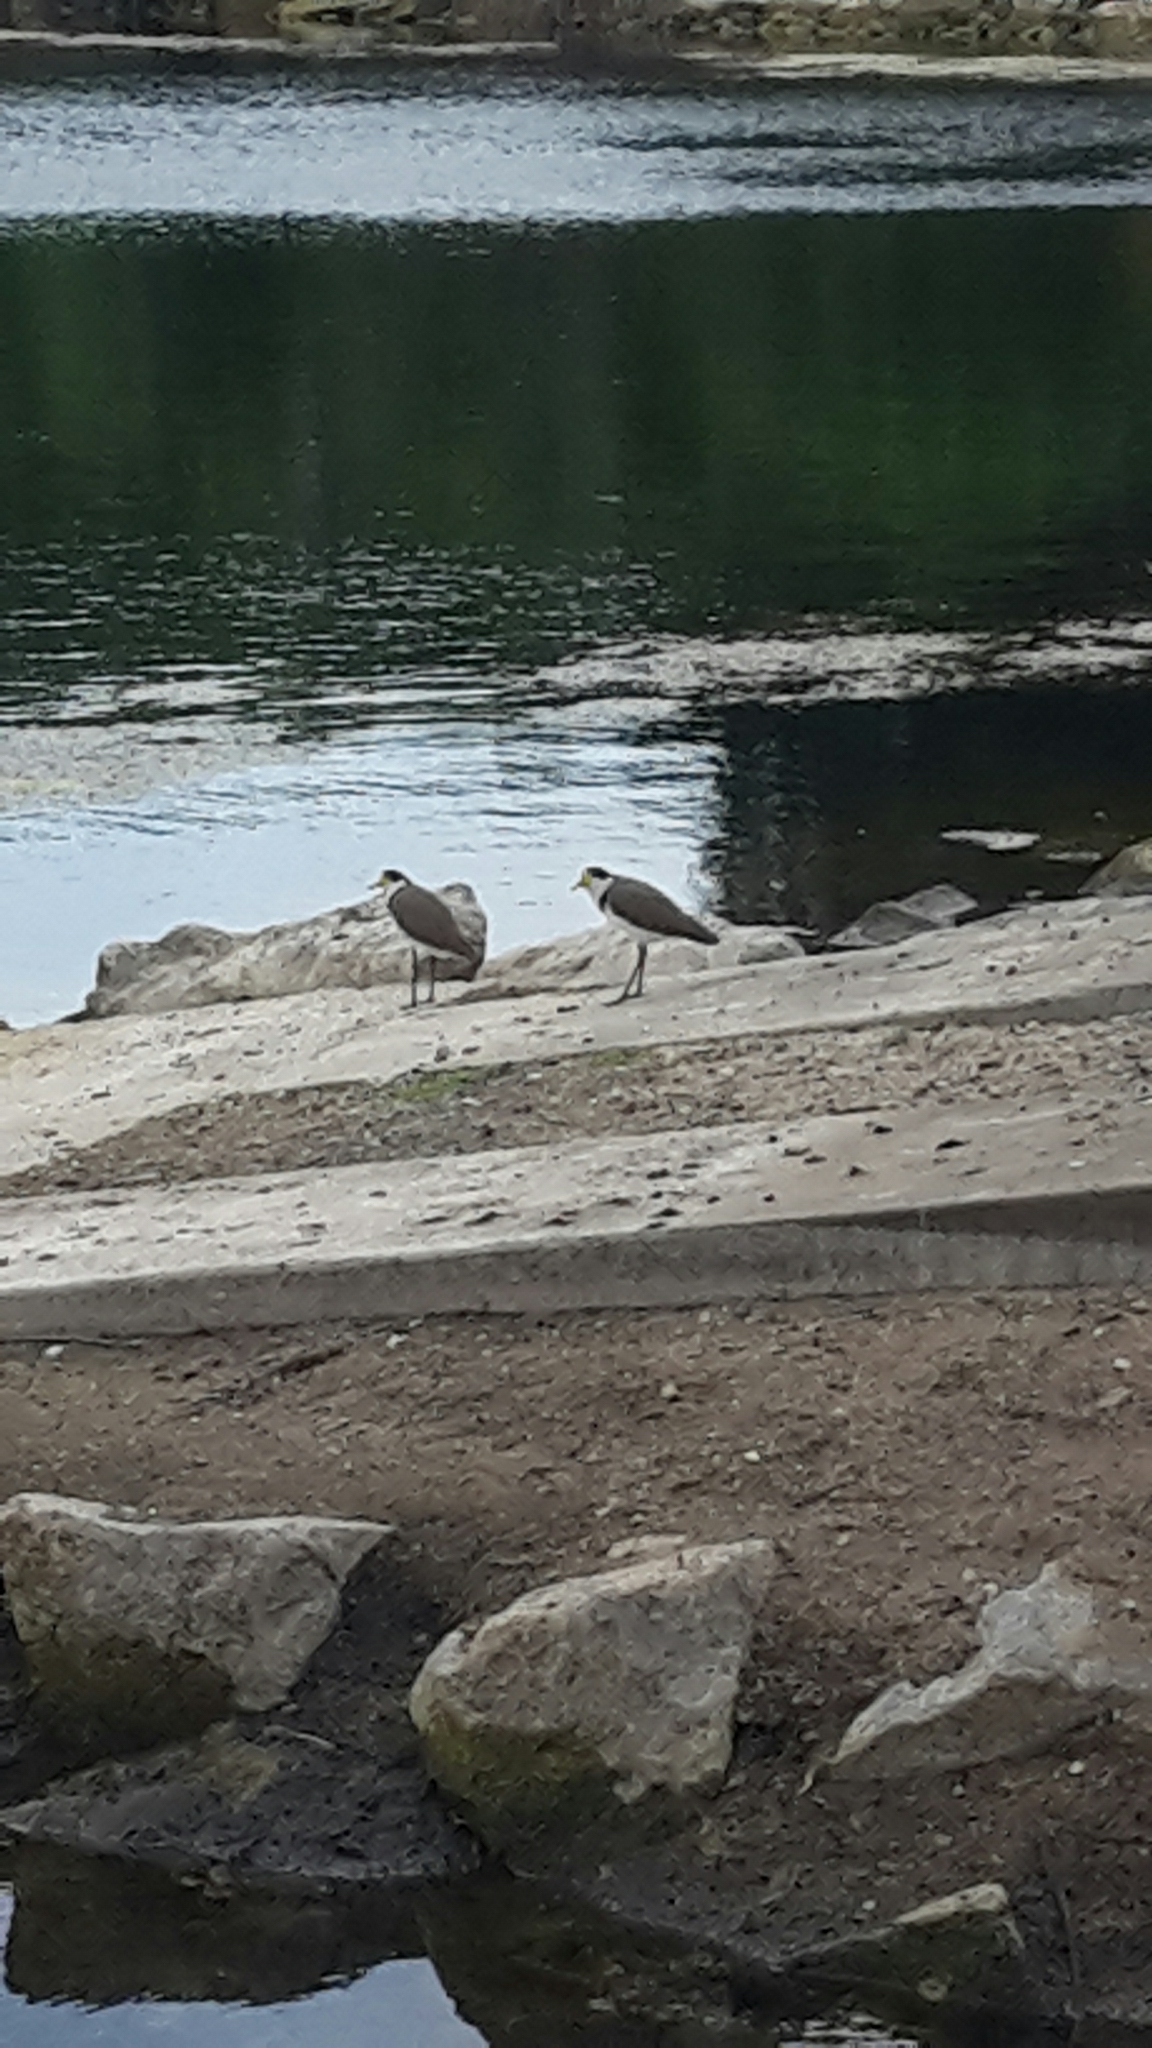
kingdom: Animalia
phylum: Chordata
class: Aves
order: Charadriiformes
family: Charadriidae
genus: Vanellus
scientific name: Vanellus miles
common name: Masked lapwing
